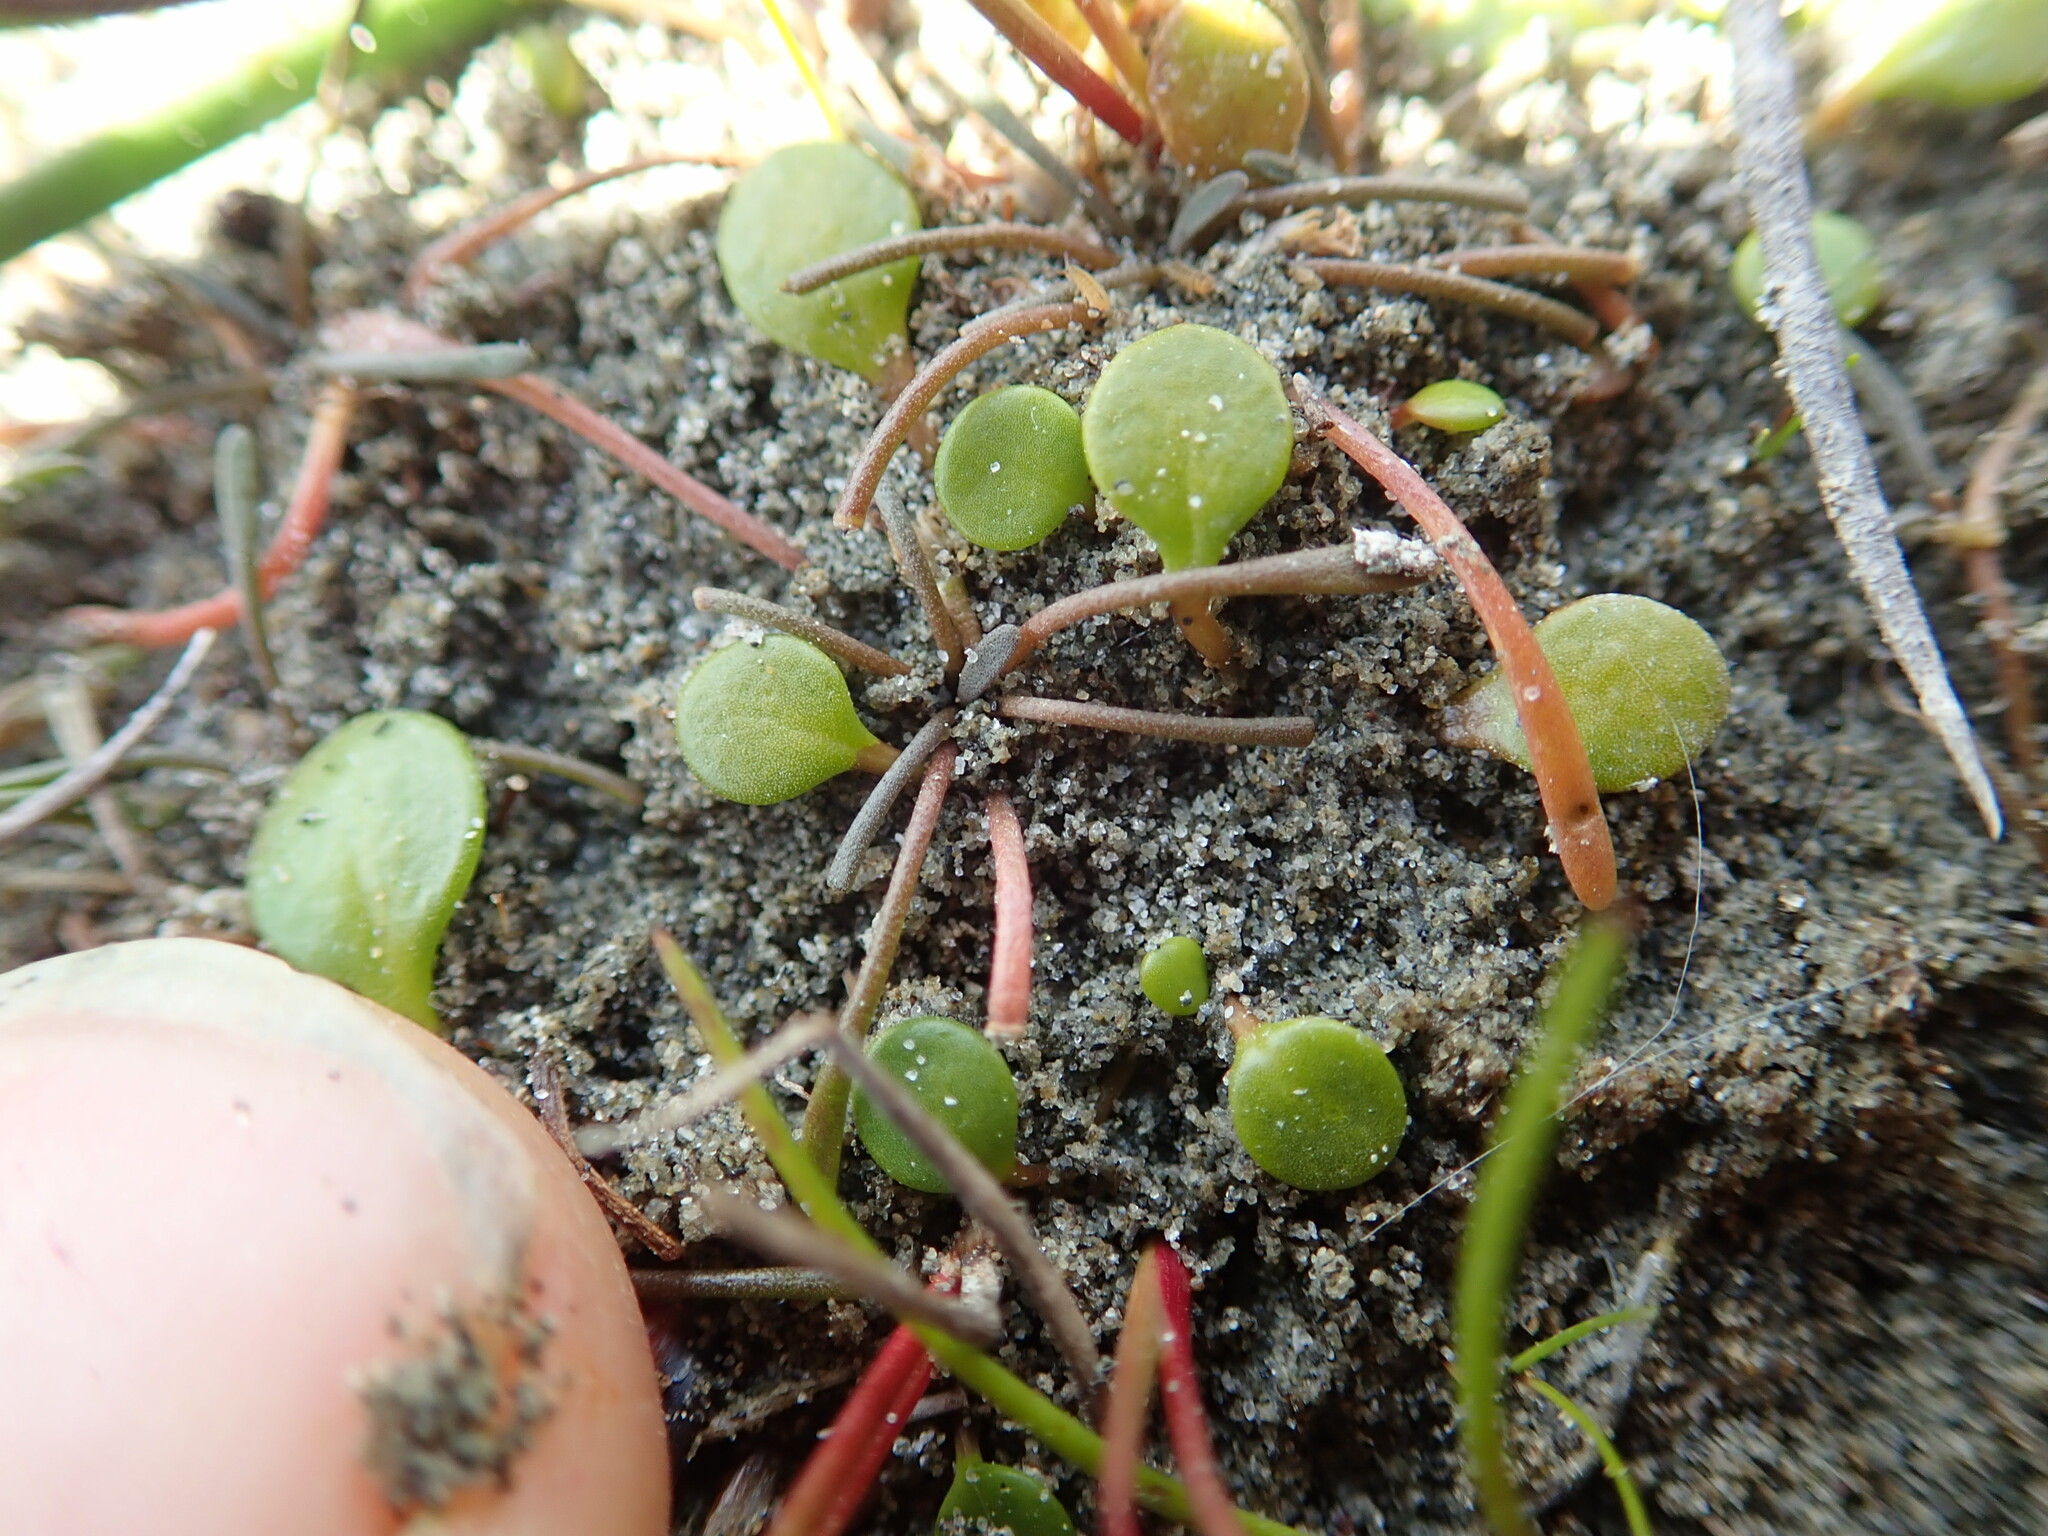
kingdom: Plantae
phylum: Tracheophyta
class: Magnoliopsida
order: Lamiales
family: Scrophulariaceae
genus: Limosella
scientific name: Limosella australis
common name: Welsh mudwort
